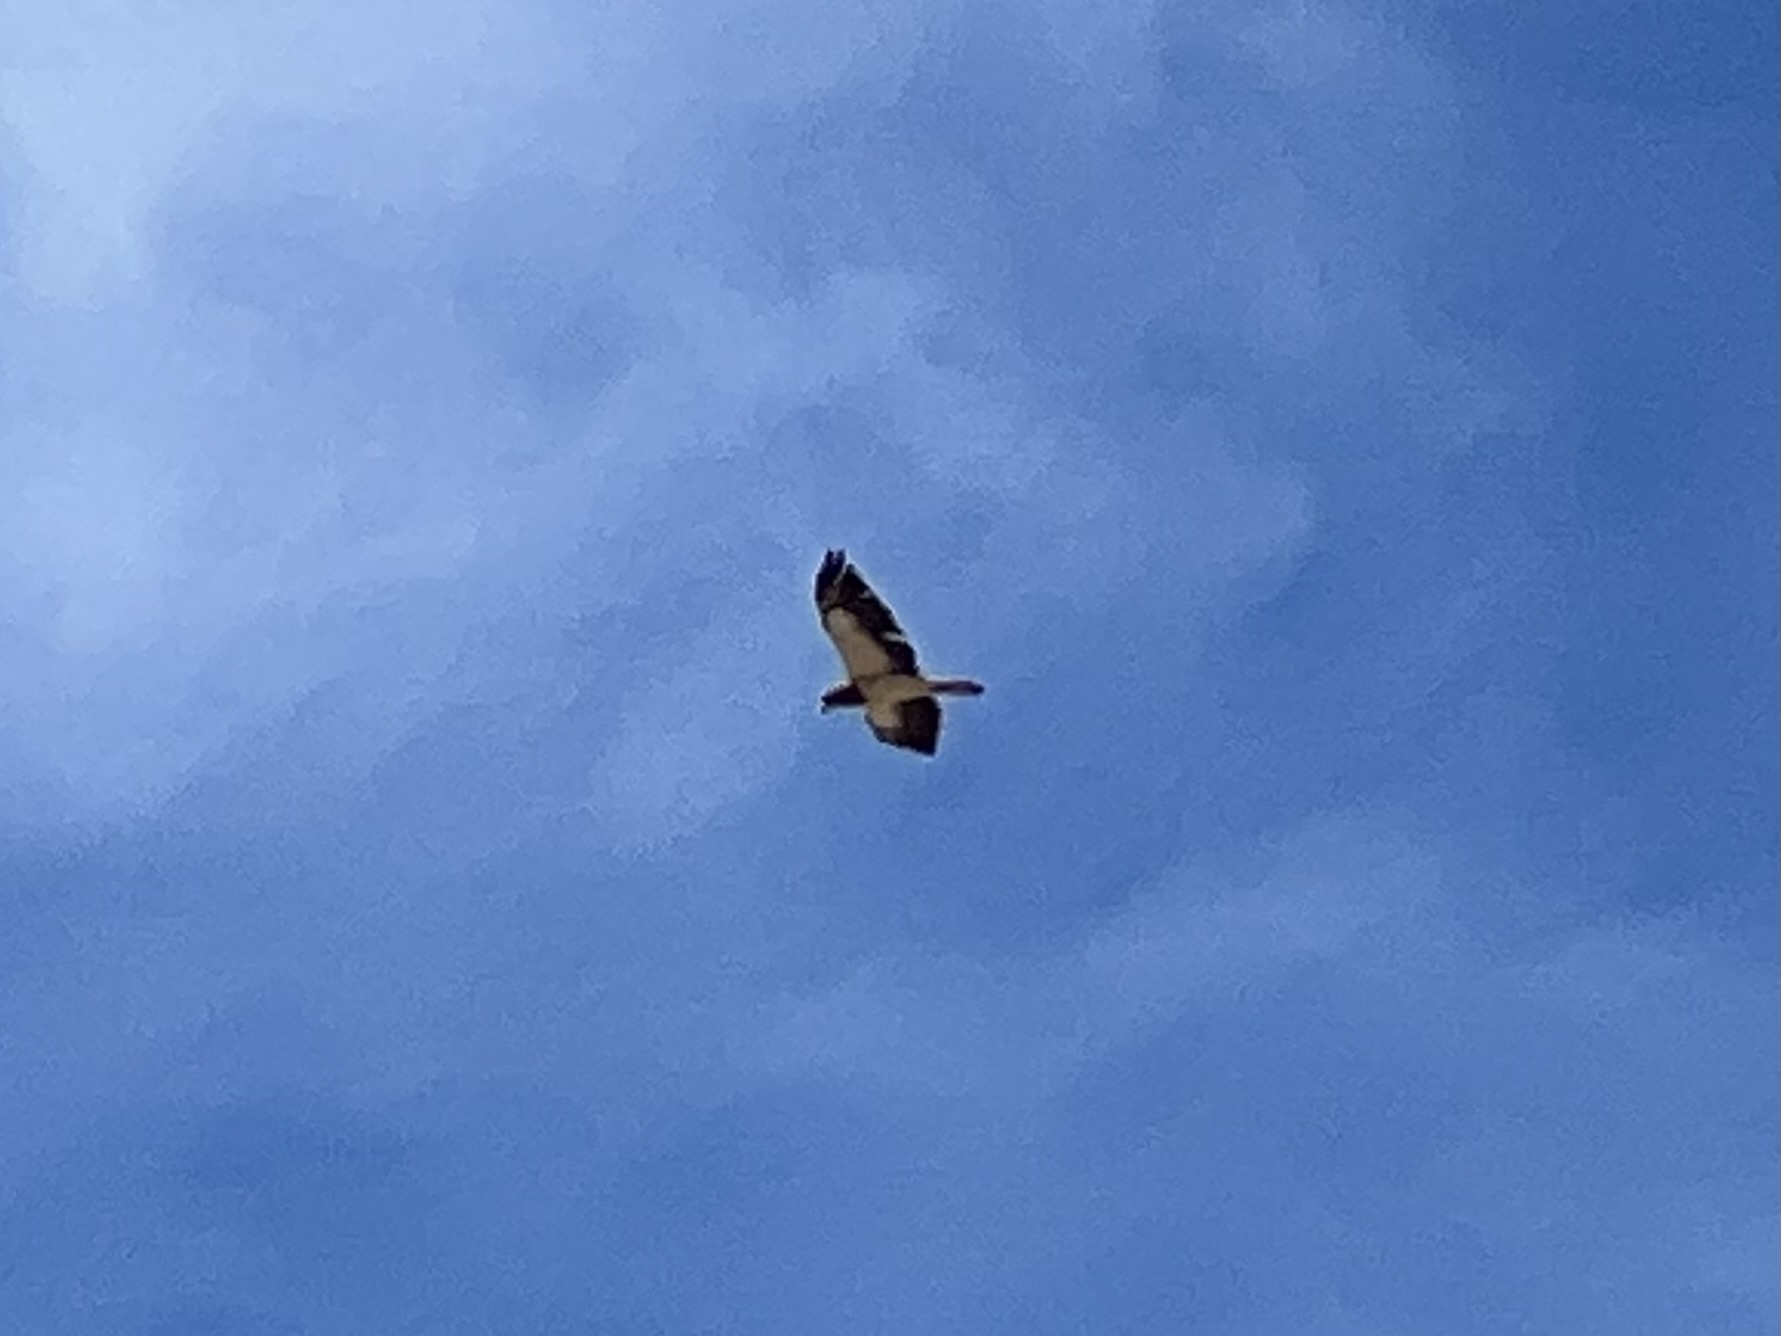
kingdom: Animalia
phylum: Chordata
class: Aves
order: Accipitriformes
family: Accipitridae
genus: Buteo
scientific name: Buteo swainsoni
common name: Swainson's hawk
